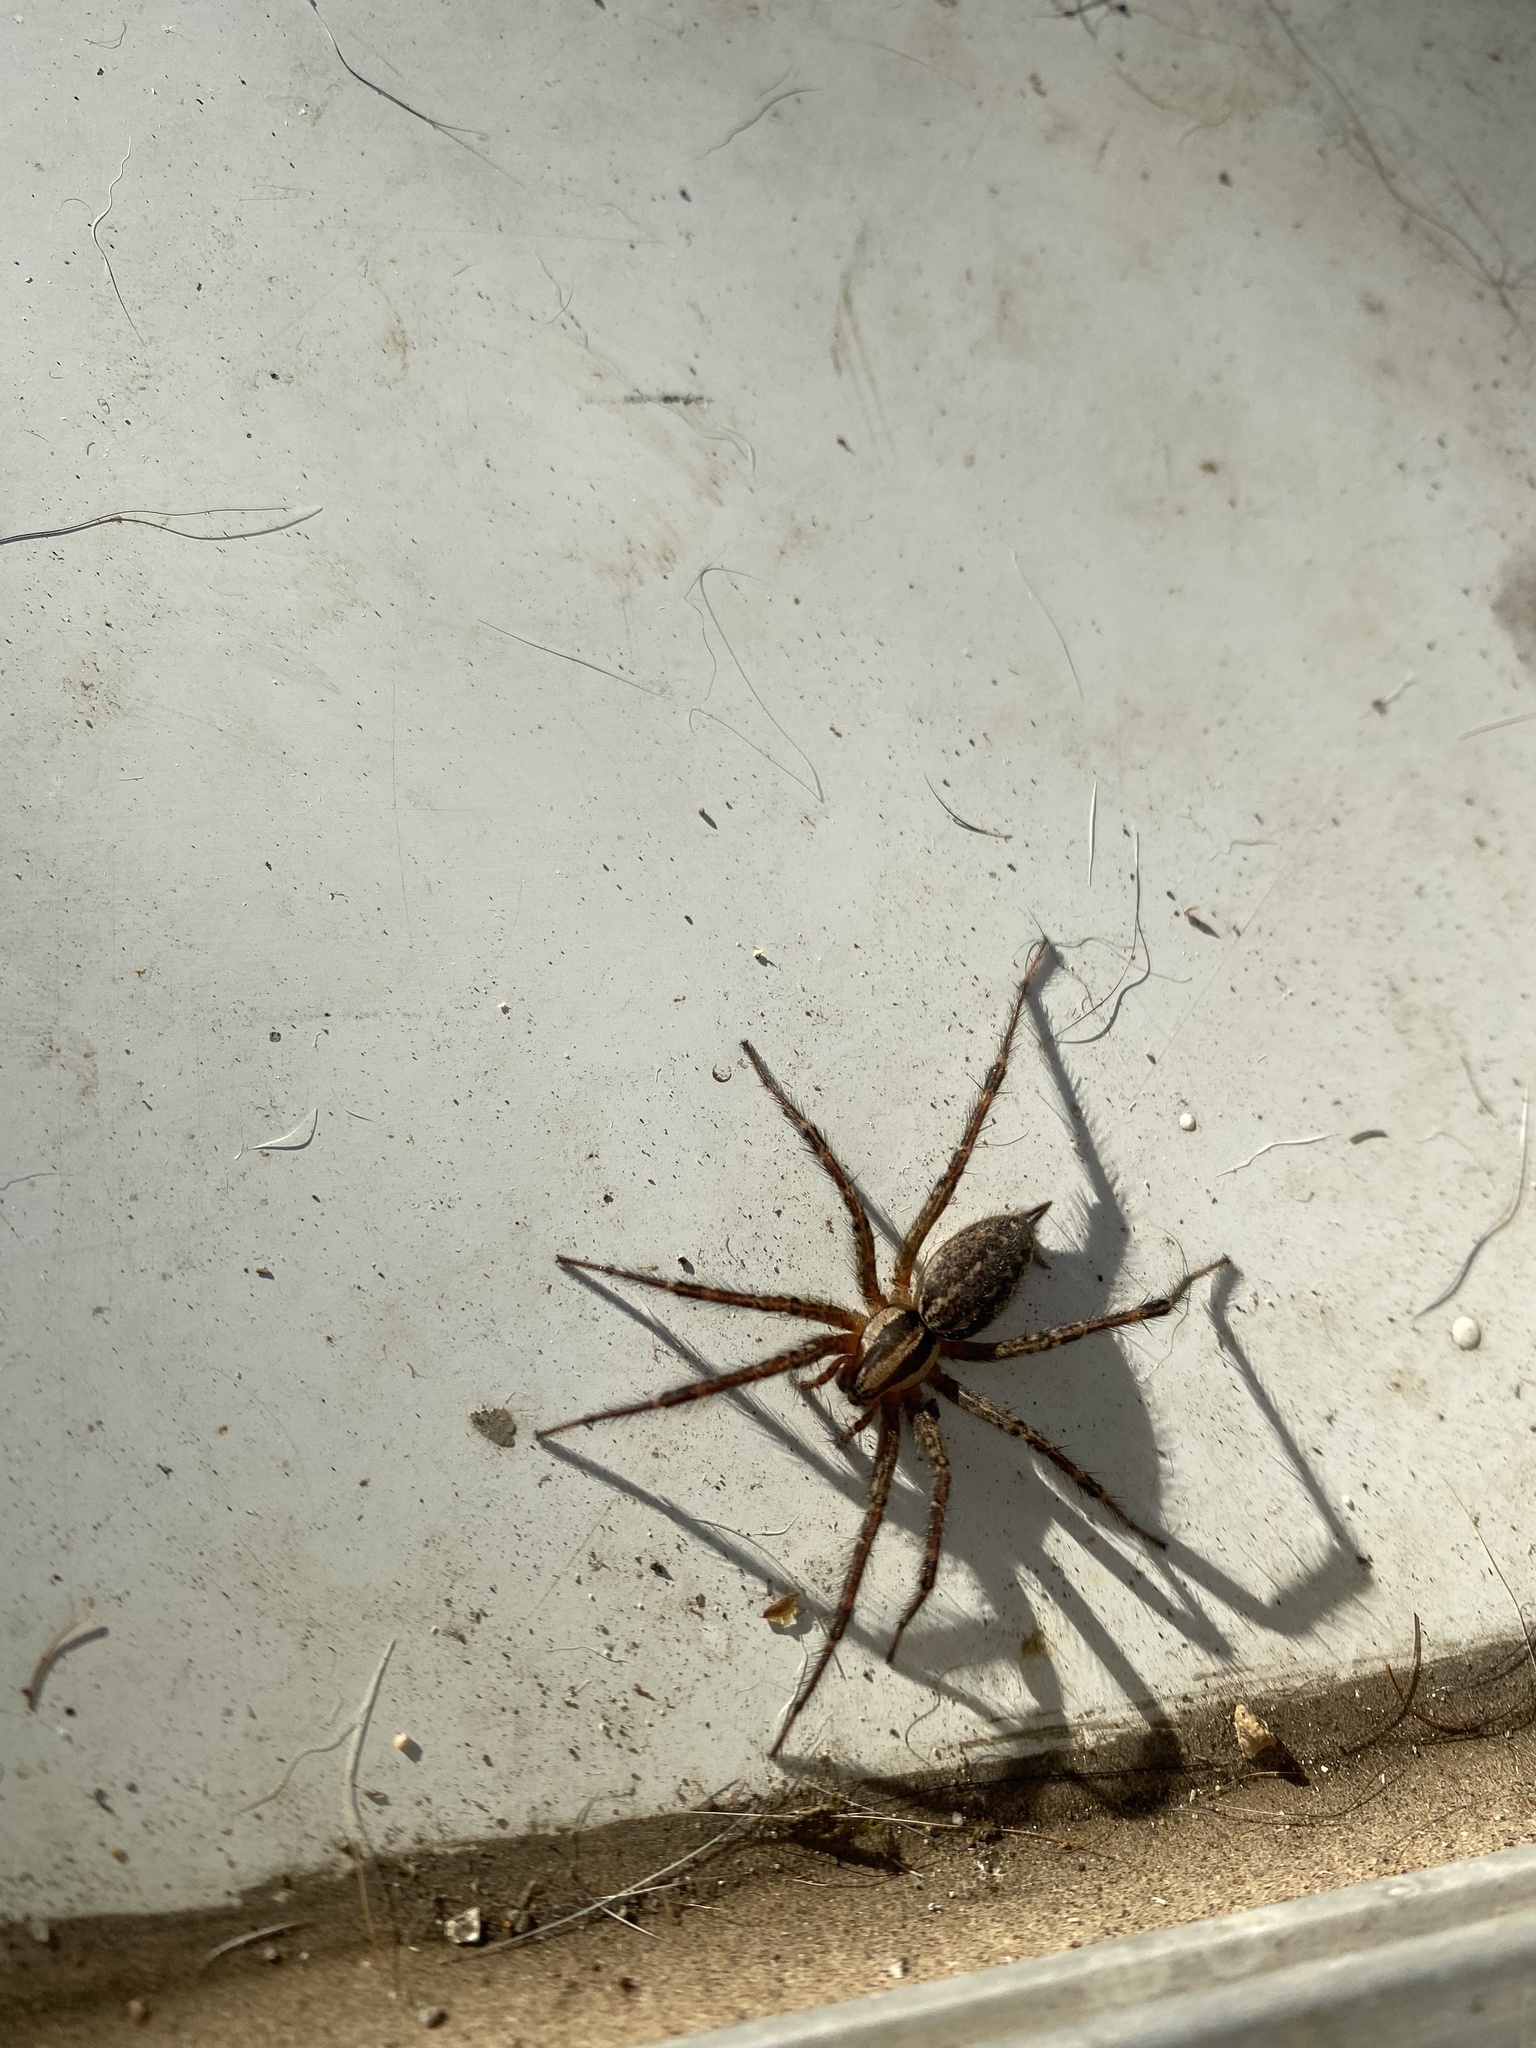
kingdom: Animalia
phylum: Arthropoda
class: Arachnida
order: Araneae
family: Agelenidae
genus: Agelenopsis
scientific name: Agelenopsis
